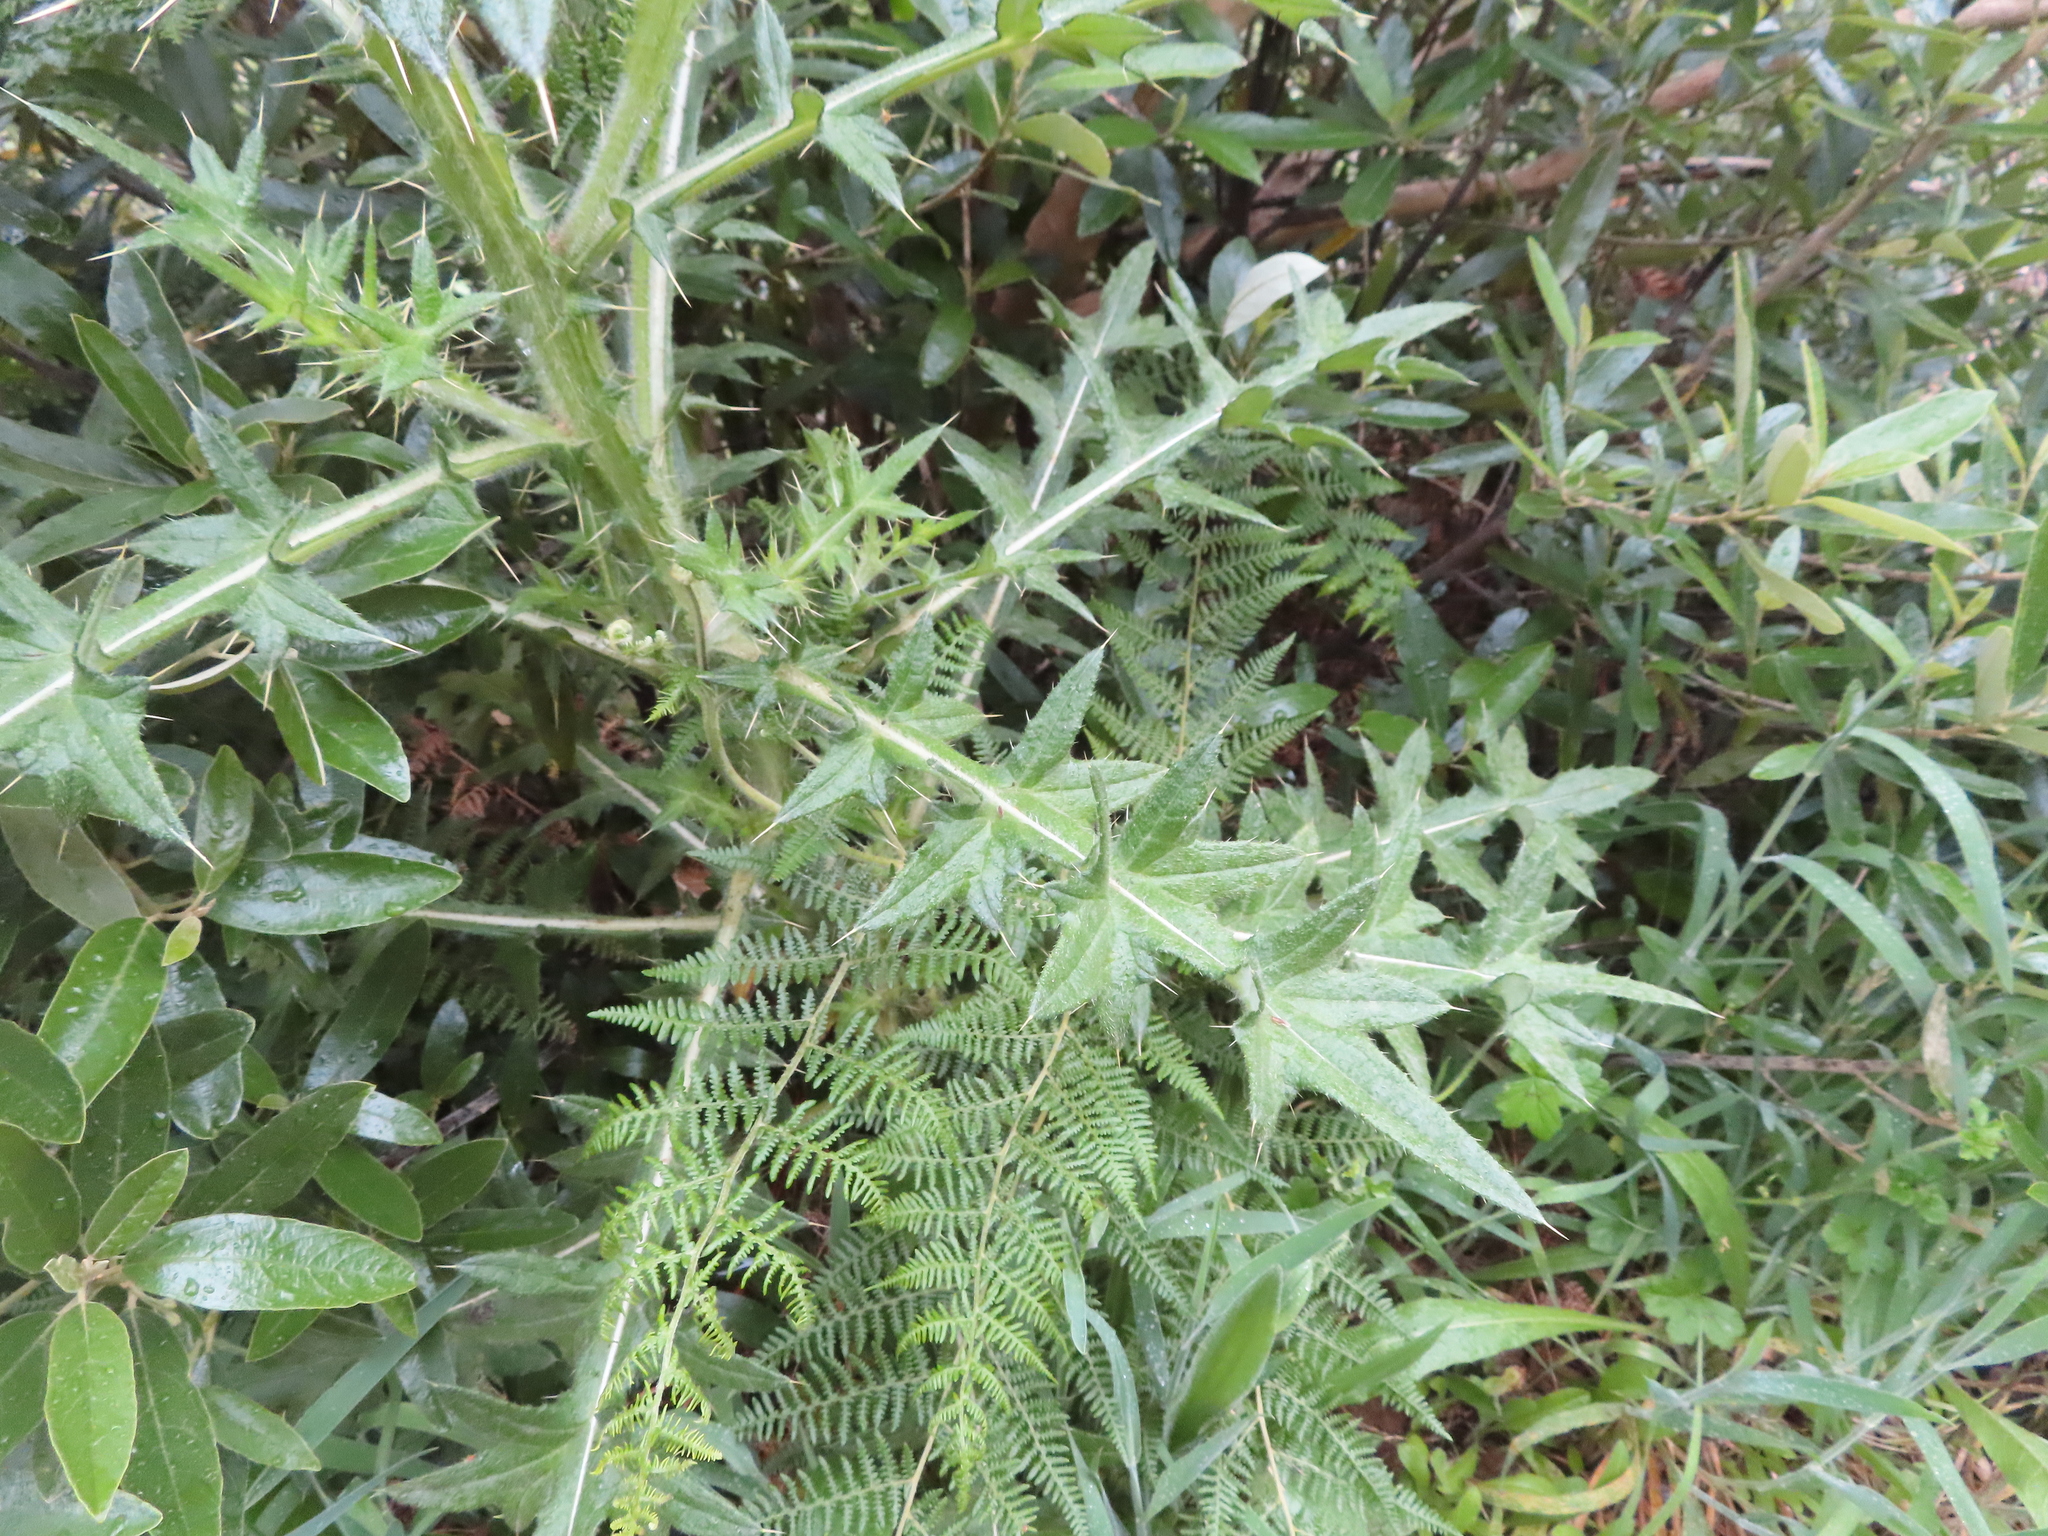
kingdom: Plantae
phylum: Tracheophyta
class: Magnoliopsida
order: Asterales
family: Asteraceae
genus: Cirsium
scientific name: Cirsium vulgare
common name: Bull thistle
